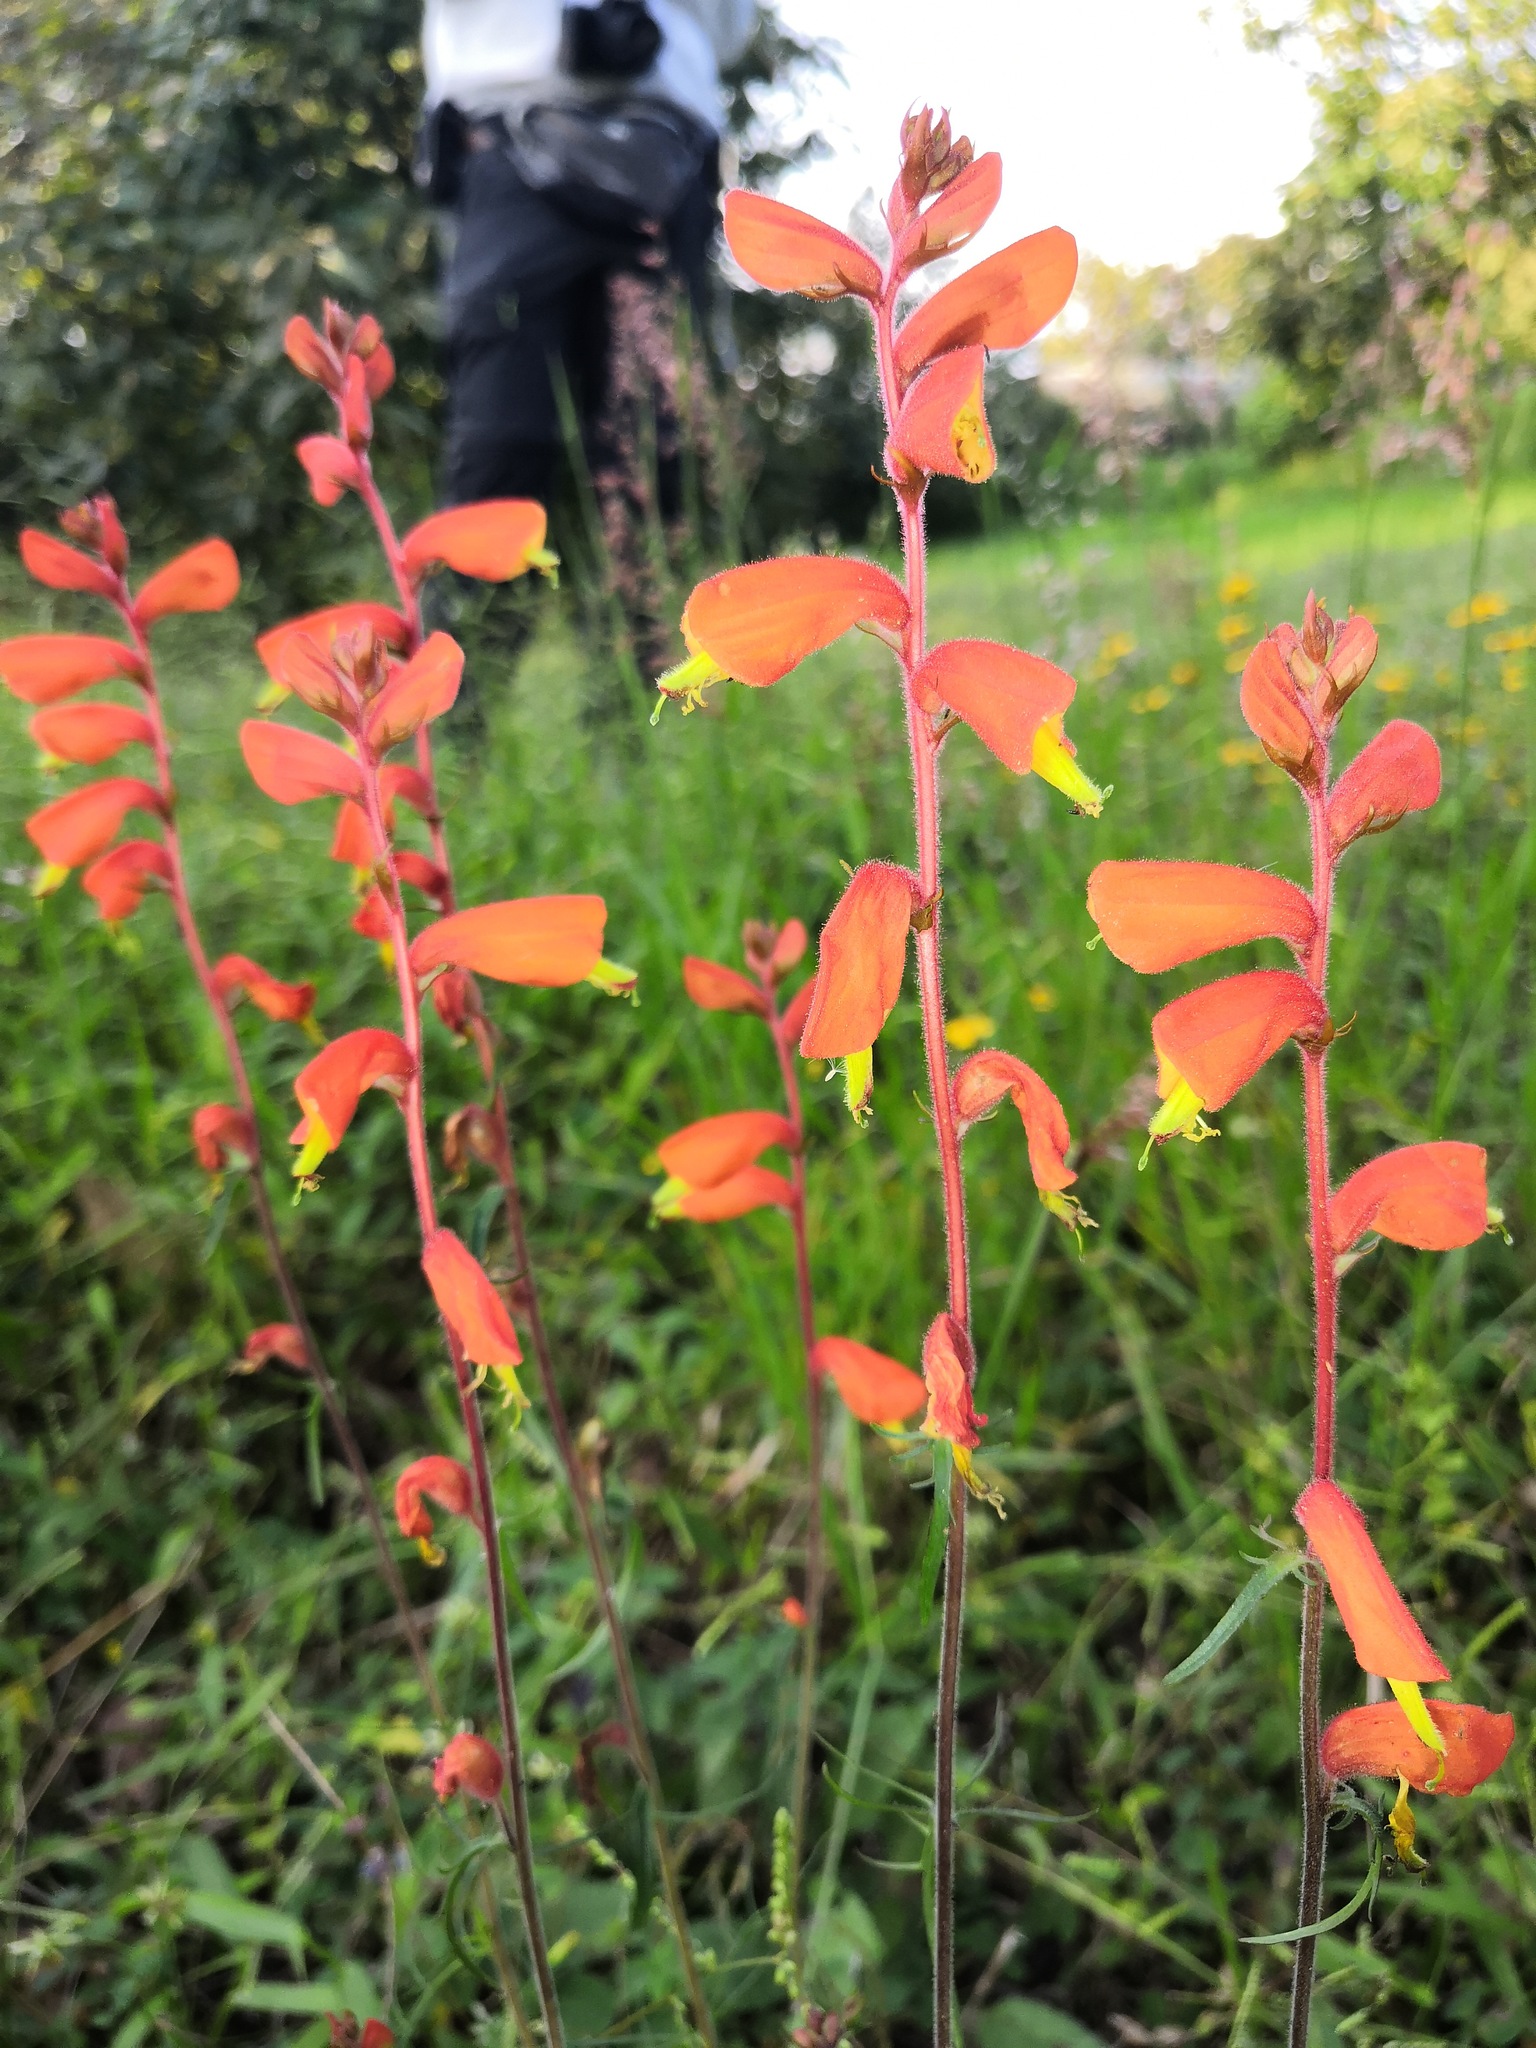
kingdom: Plantae
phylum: Tracheophyta
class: Magnoliopsida
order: Lamiales
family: Orobanchaceae
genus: Castilleja
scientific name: Castilleja tenuifolia
